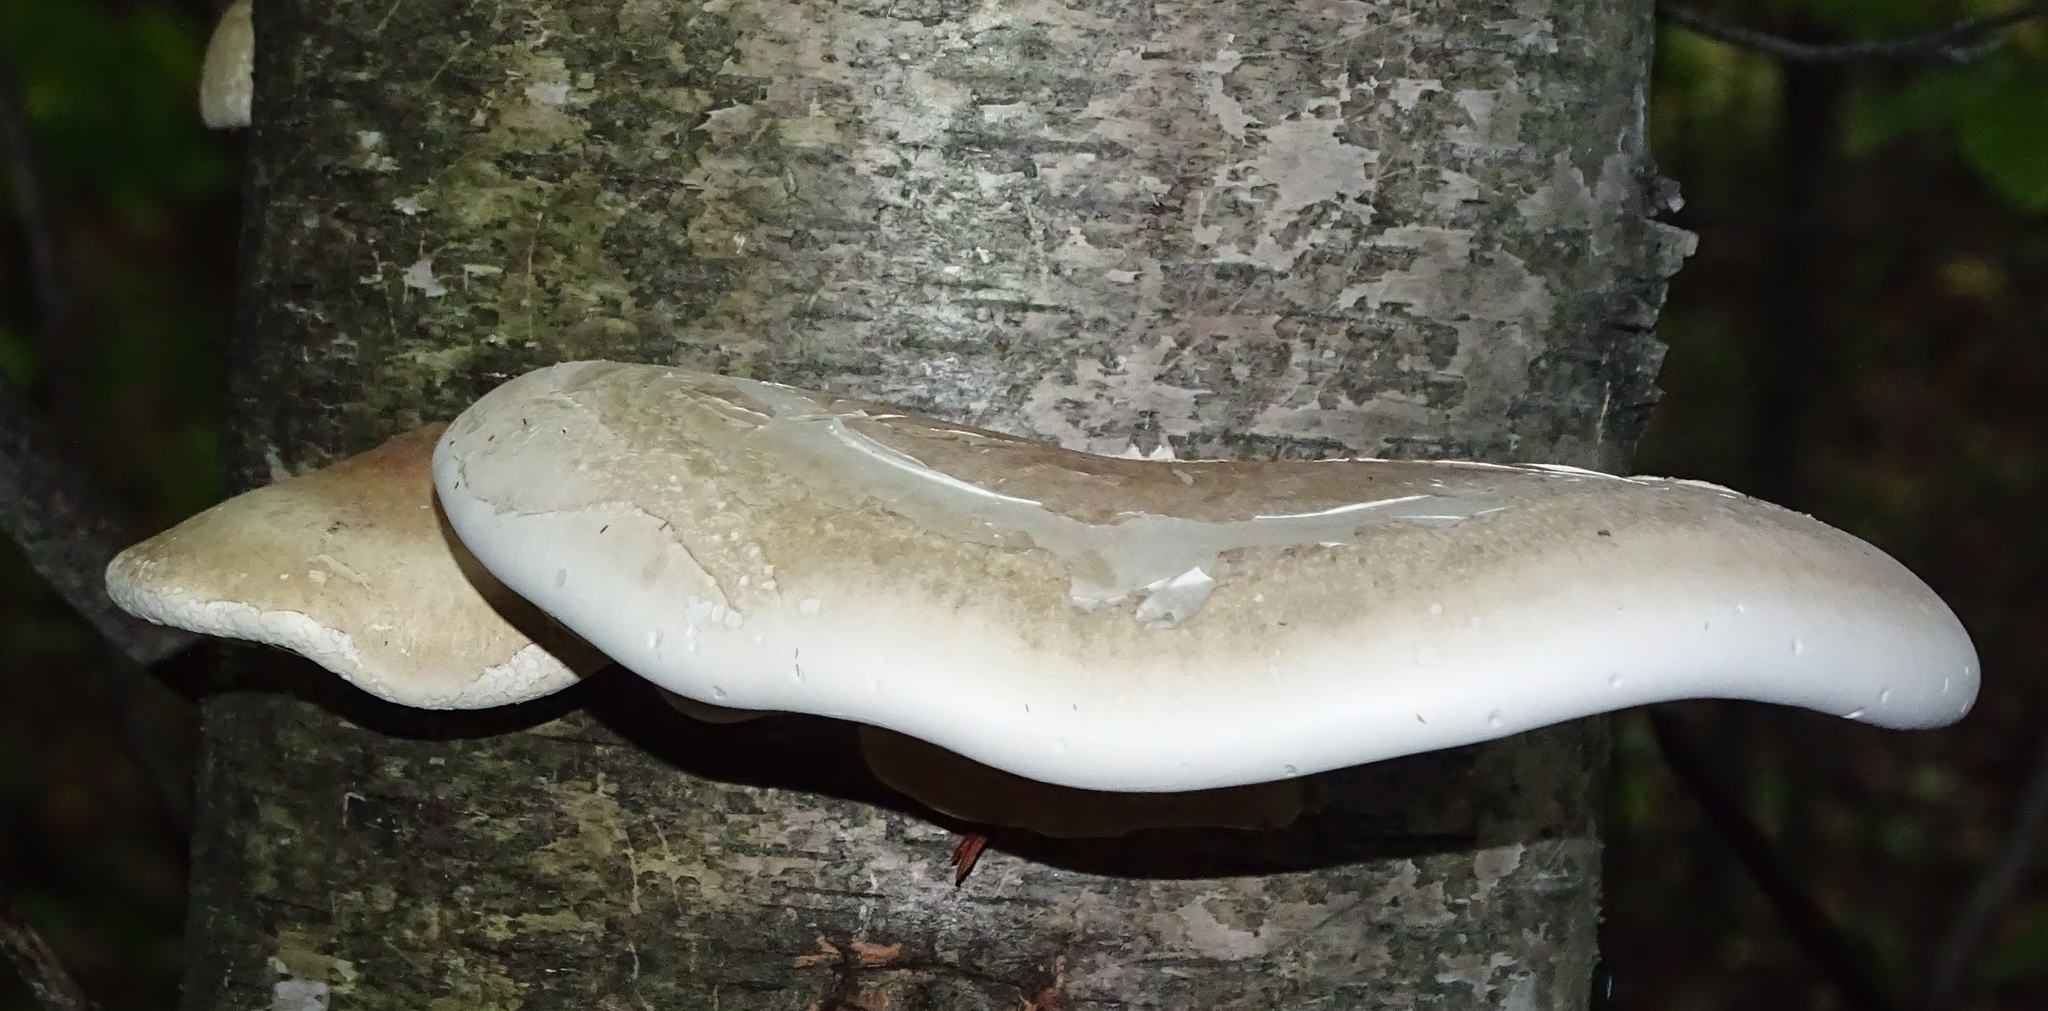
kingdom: Fungi
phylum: Basidiomycota
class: Agaricomycetes
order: Polyporales
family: Fomitopsidaceae
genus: Fomitopsis
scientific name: Fomitopsis betulina
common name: Birch polypore
